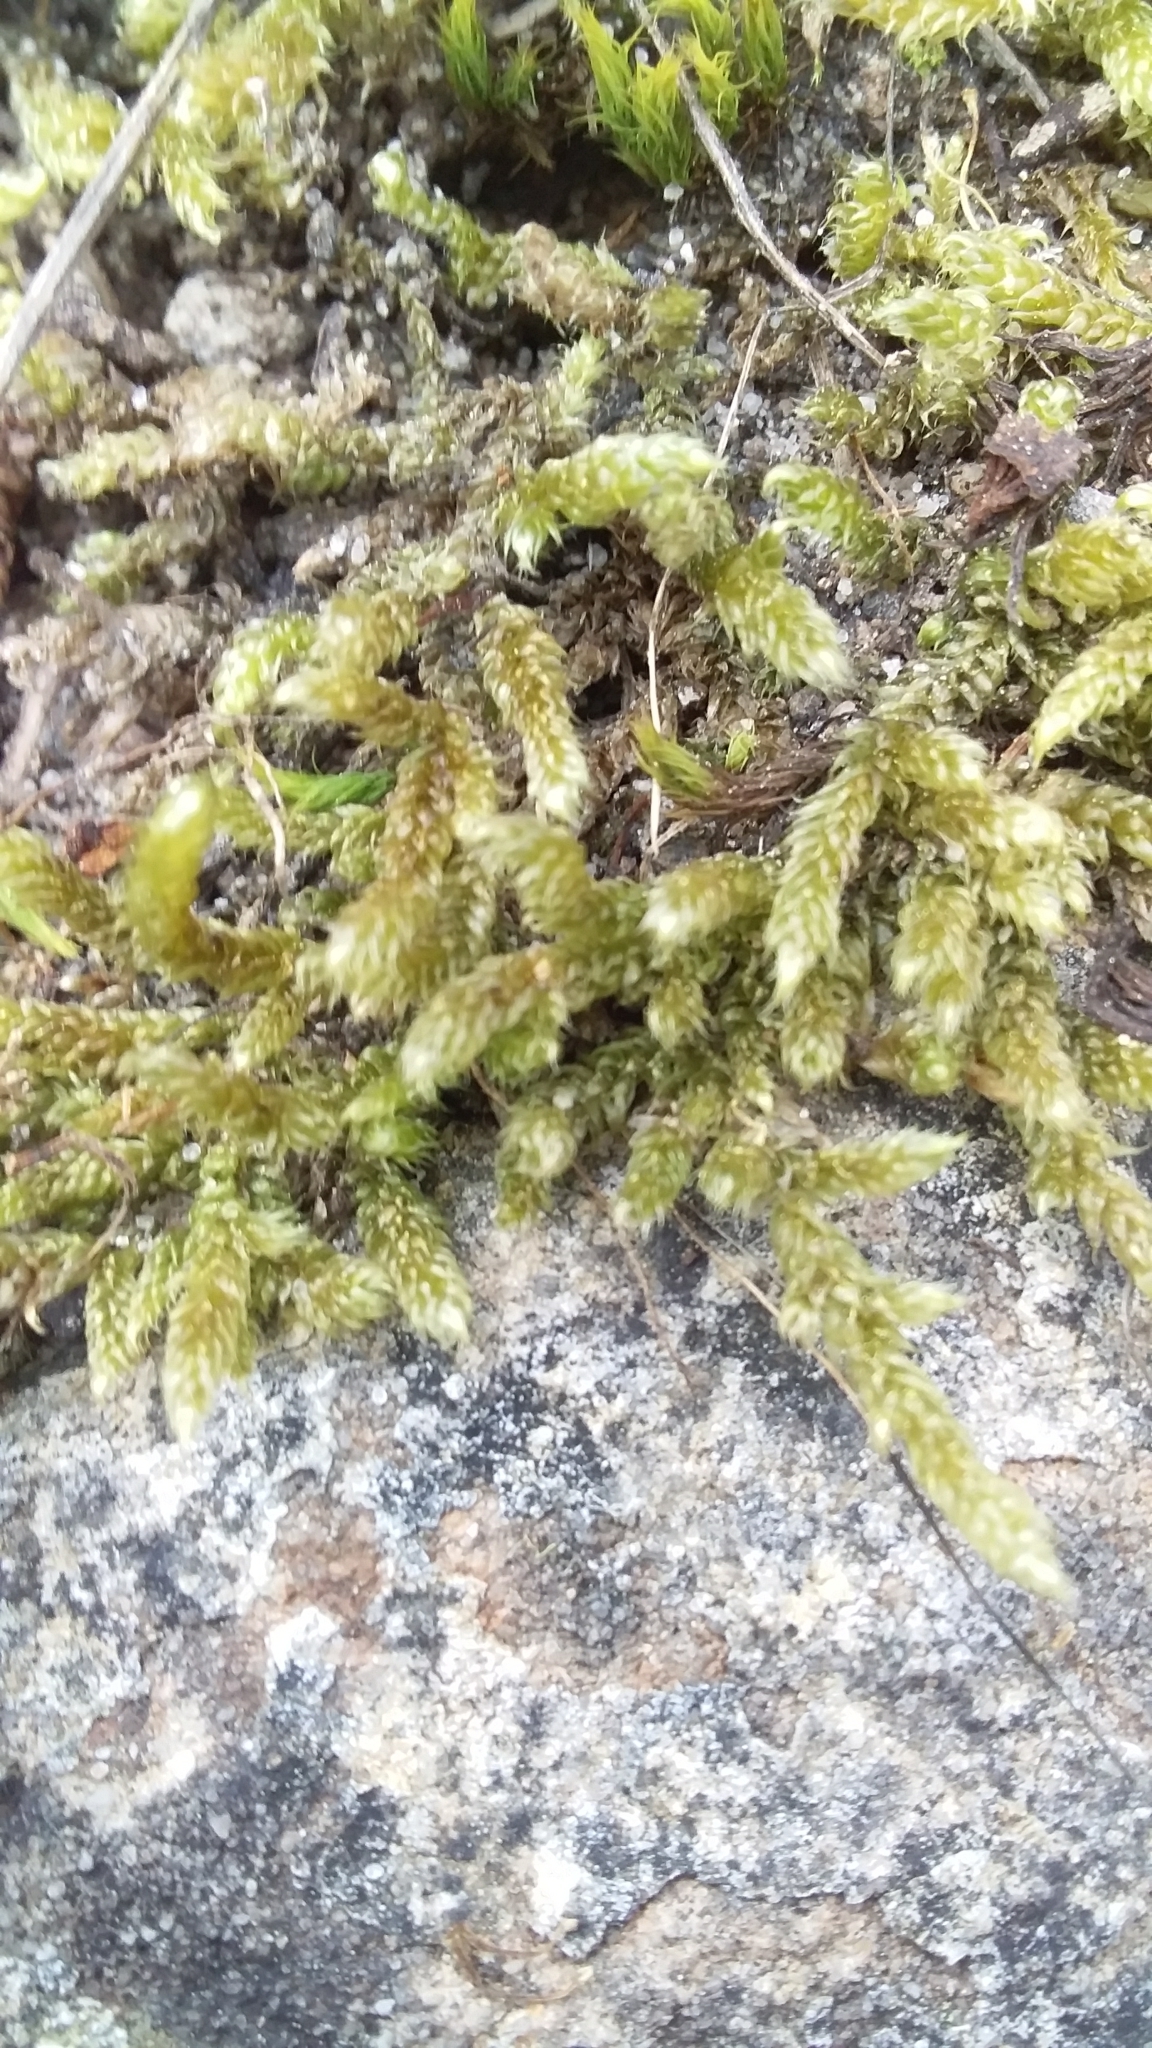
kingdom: Plantae
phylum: Bryophyta
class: Bryopsida
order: Hypnales
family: Hypnaceae
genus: Hypnum
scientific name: Hypnum cupressiforme
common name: Cypress-leaved plait-moss
